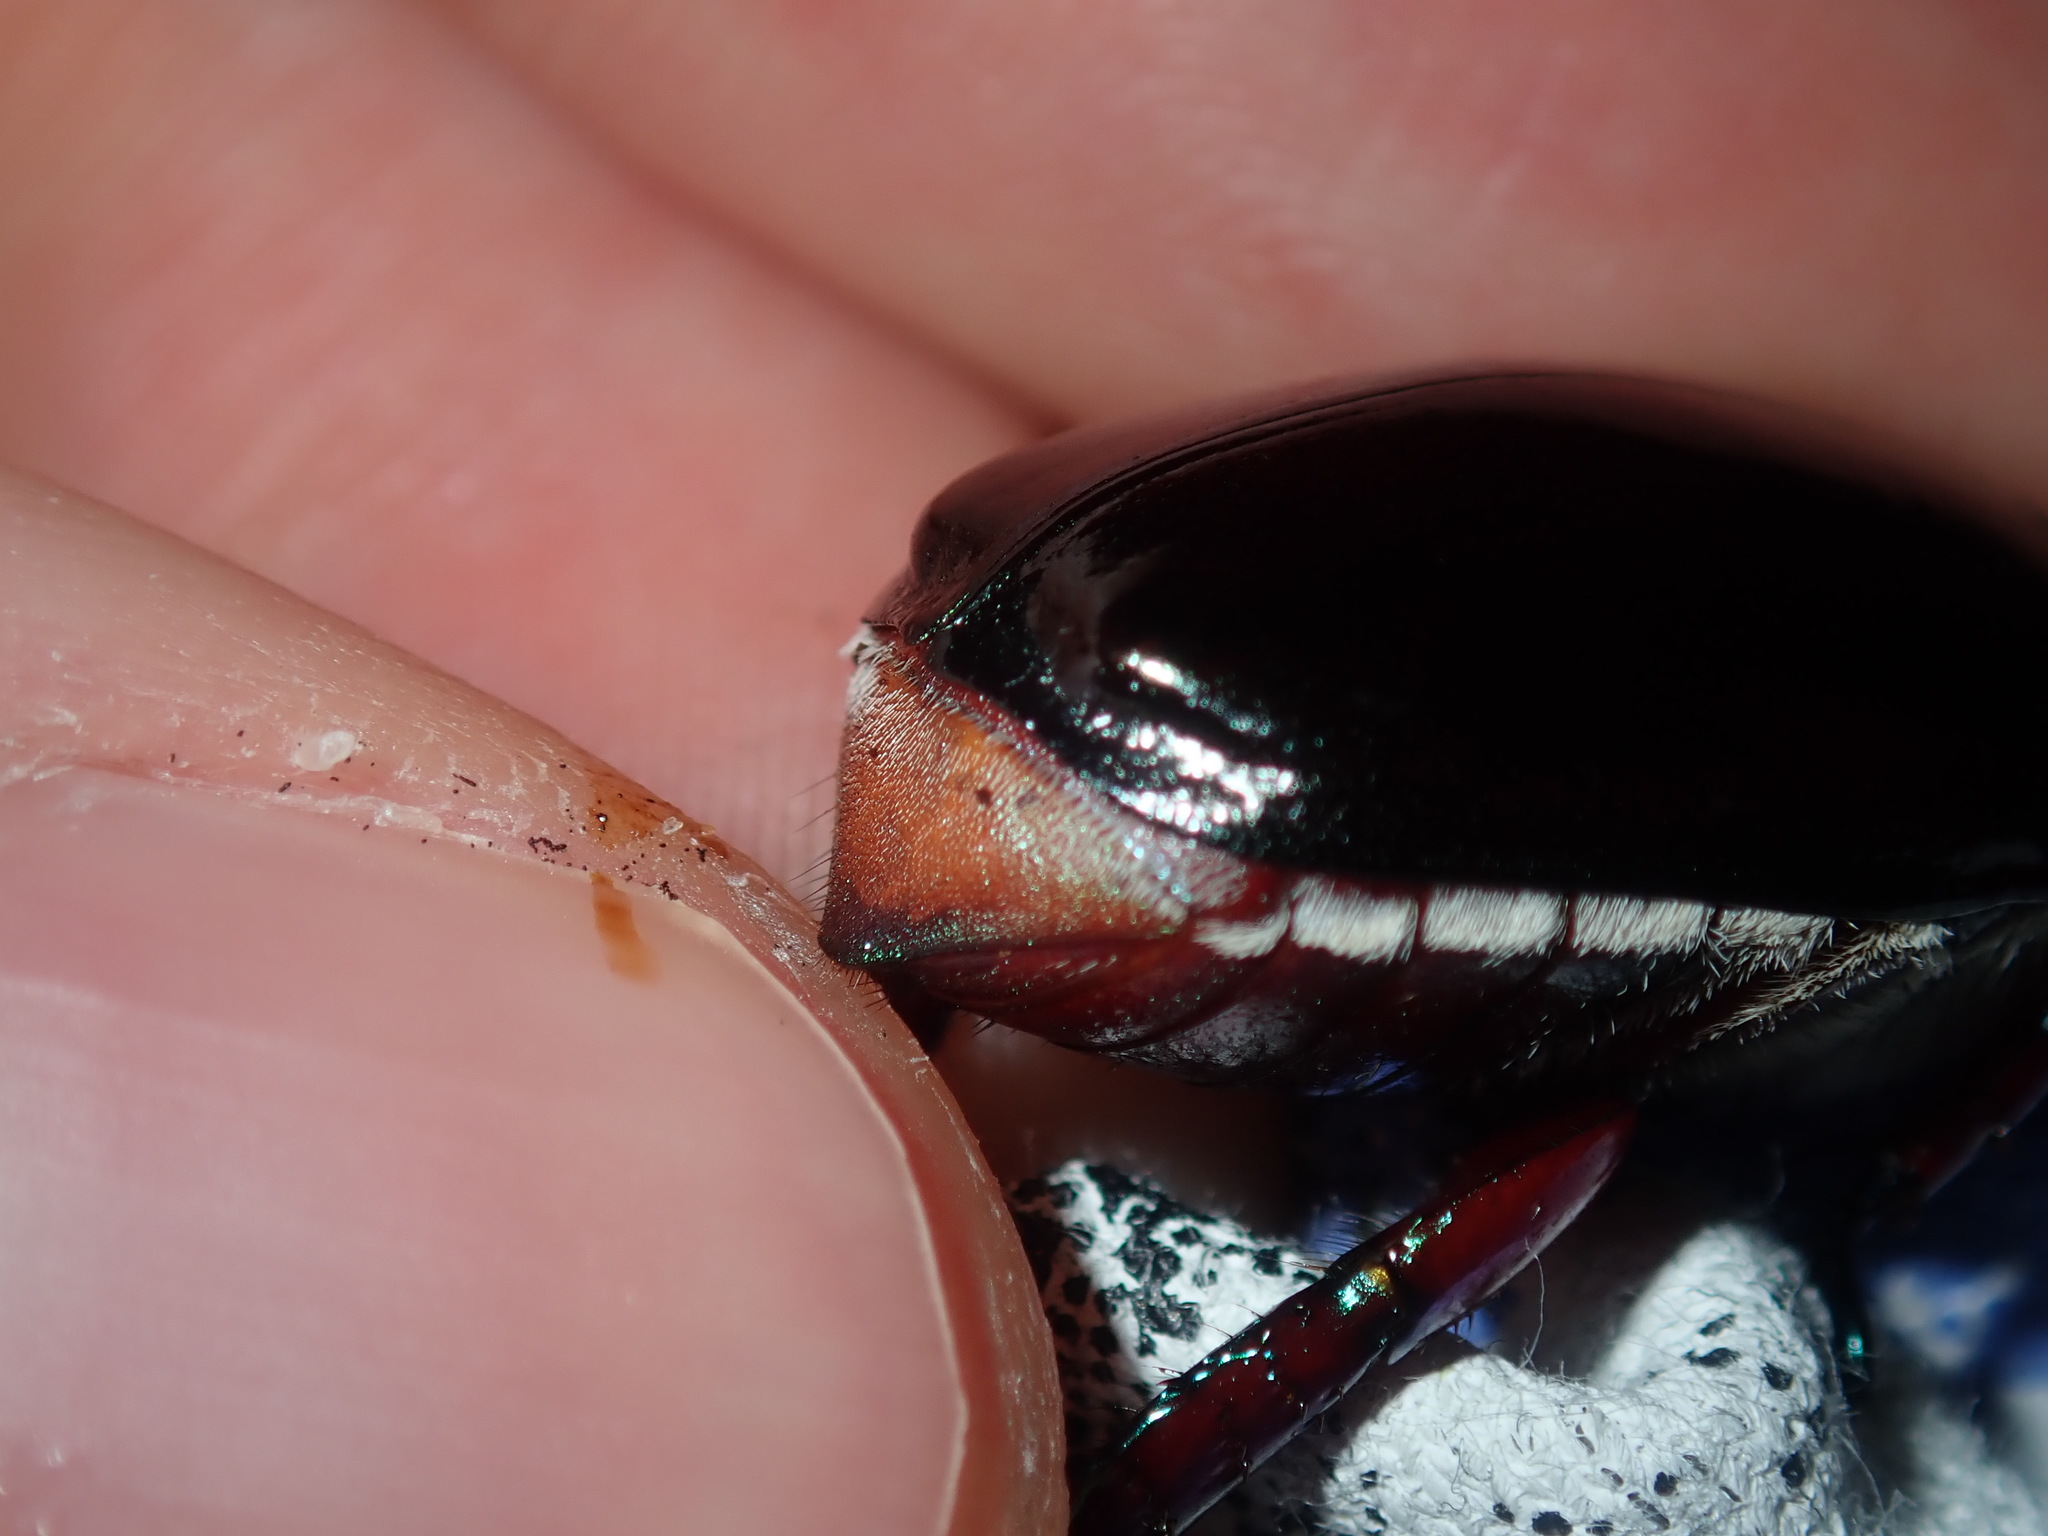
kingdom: Animalia
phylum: Arthropoda
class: Insecta
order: Coleoptera
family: Scarabaeidae
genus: Repsimus
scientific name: Repsimus aeneus
